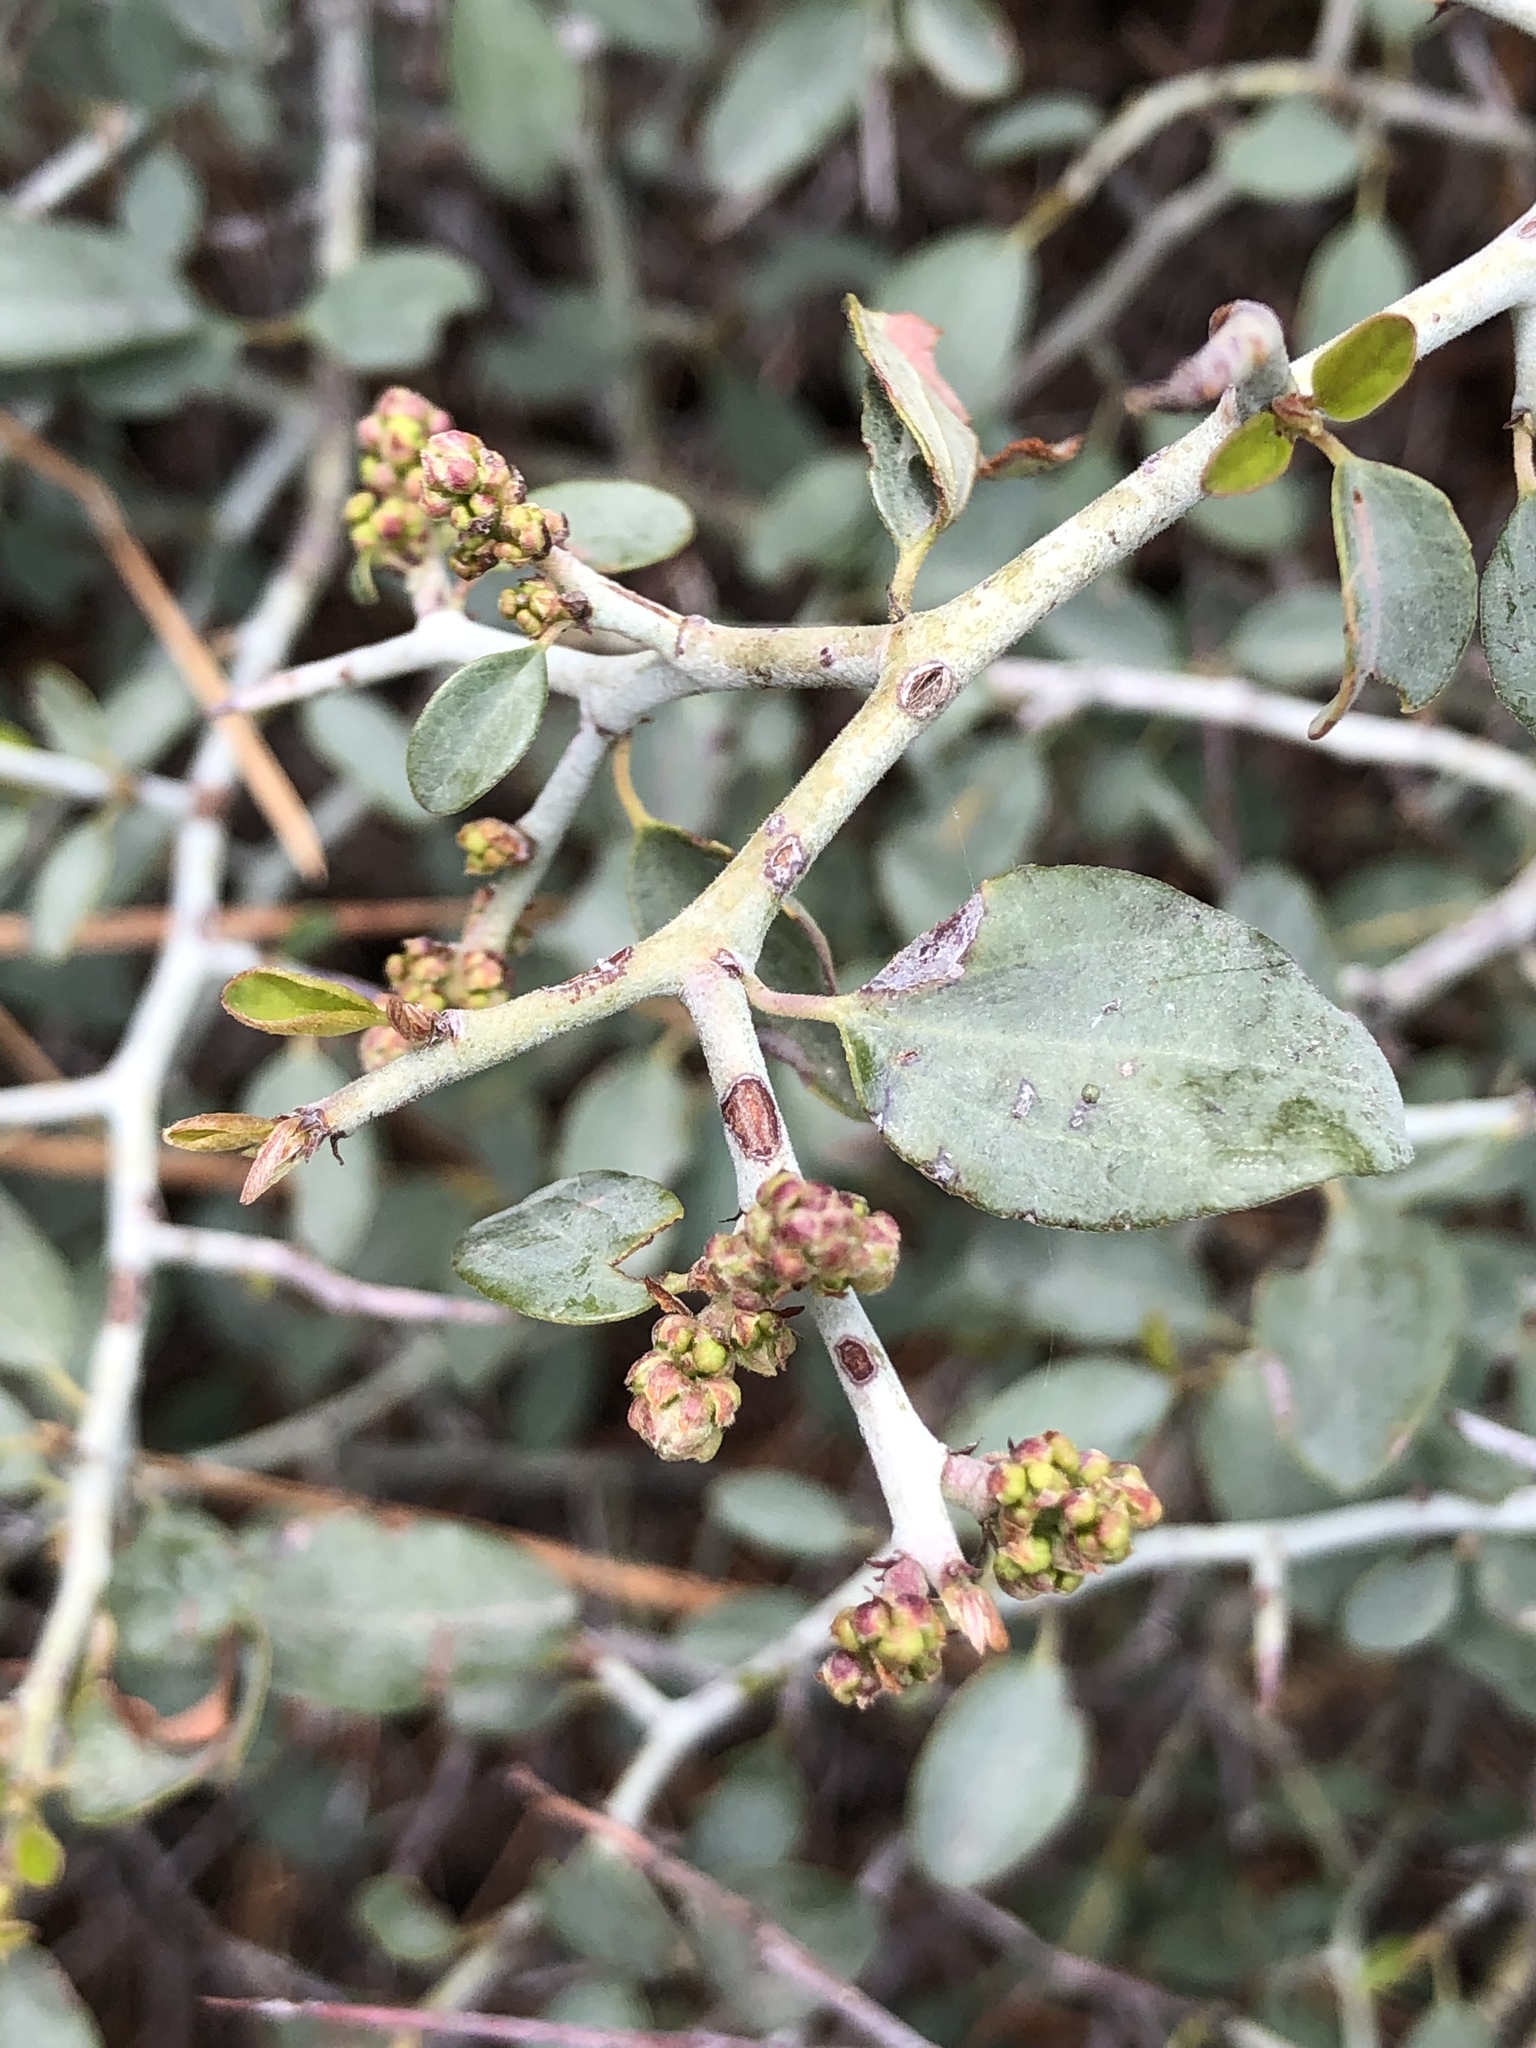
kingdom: Plantae
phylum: Tracheophyta
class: Magnoliopsida
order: Rosales
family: Rhamnaceae
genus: Ceanothus
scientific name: Ceanothus cordulatus
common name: Mountain whitethorn
